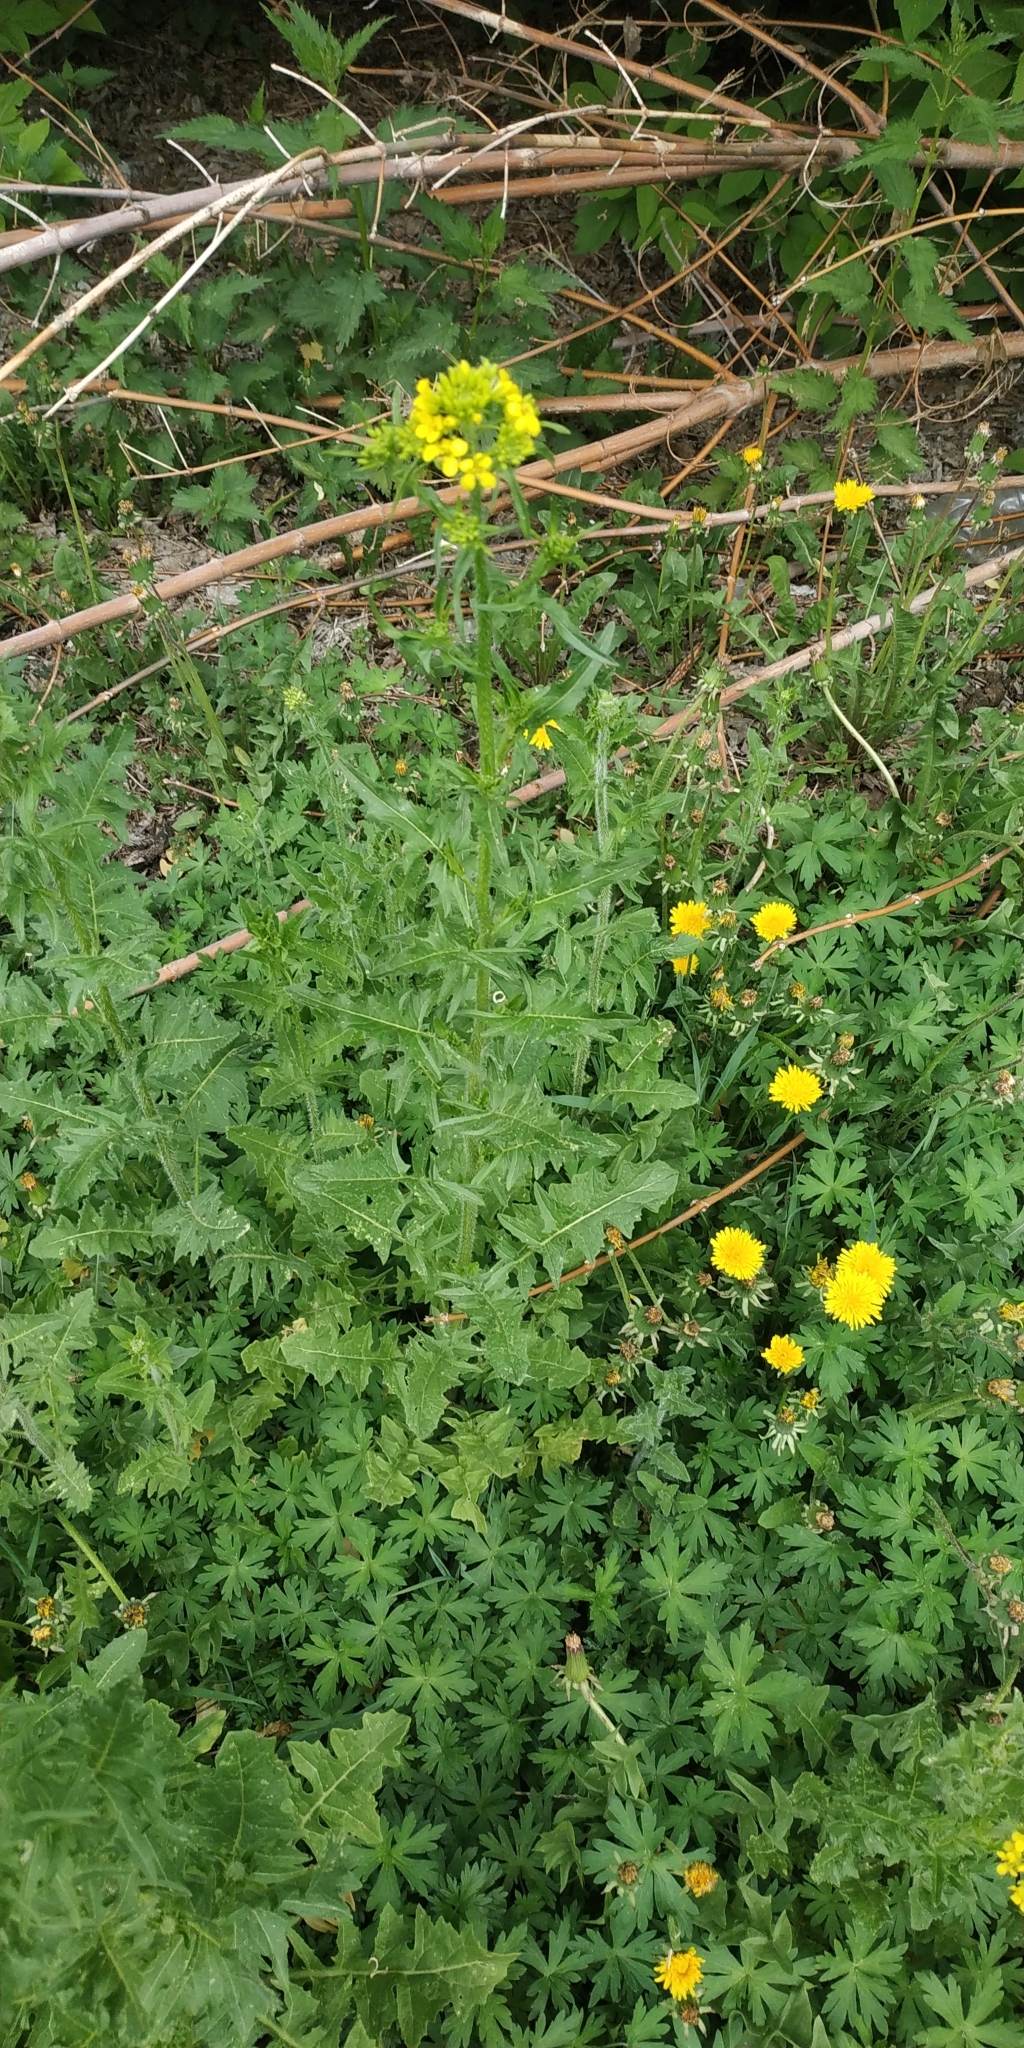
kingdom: Plantae
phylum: Tracheophyta
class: Magnoliopsida
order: Brassicales
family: Brassicaceae
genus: Sisymbrium
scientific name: Sisymbrium loeselii
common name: False london-rocket
